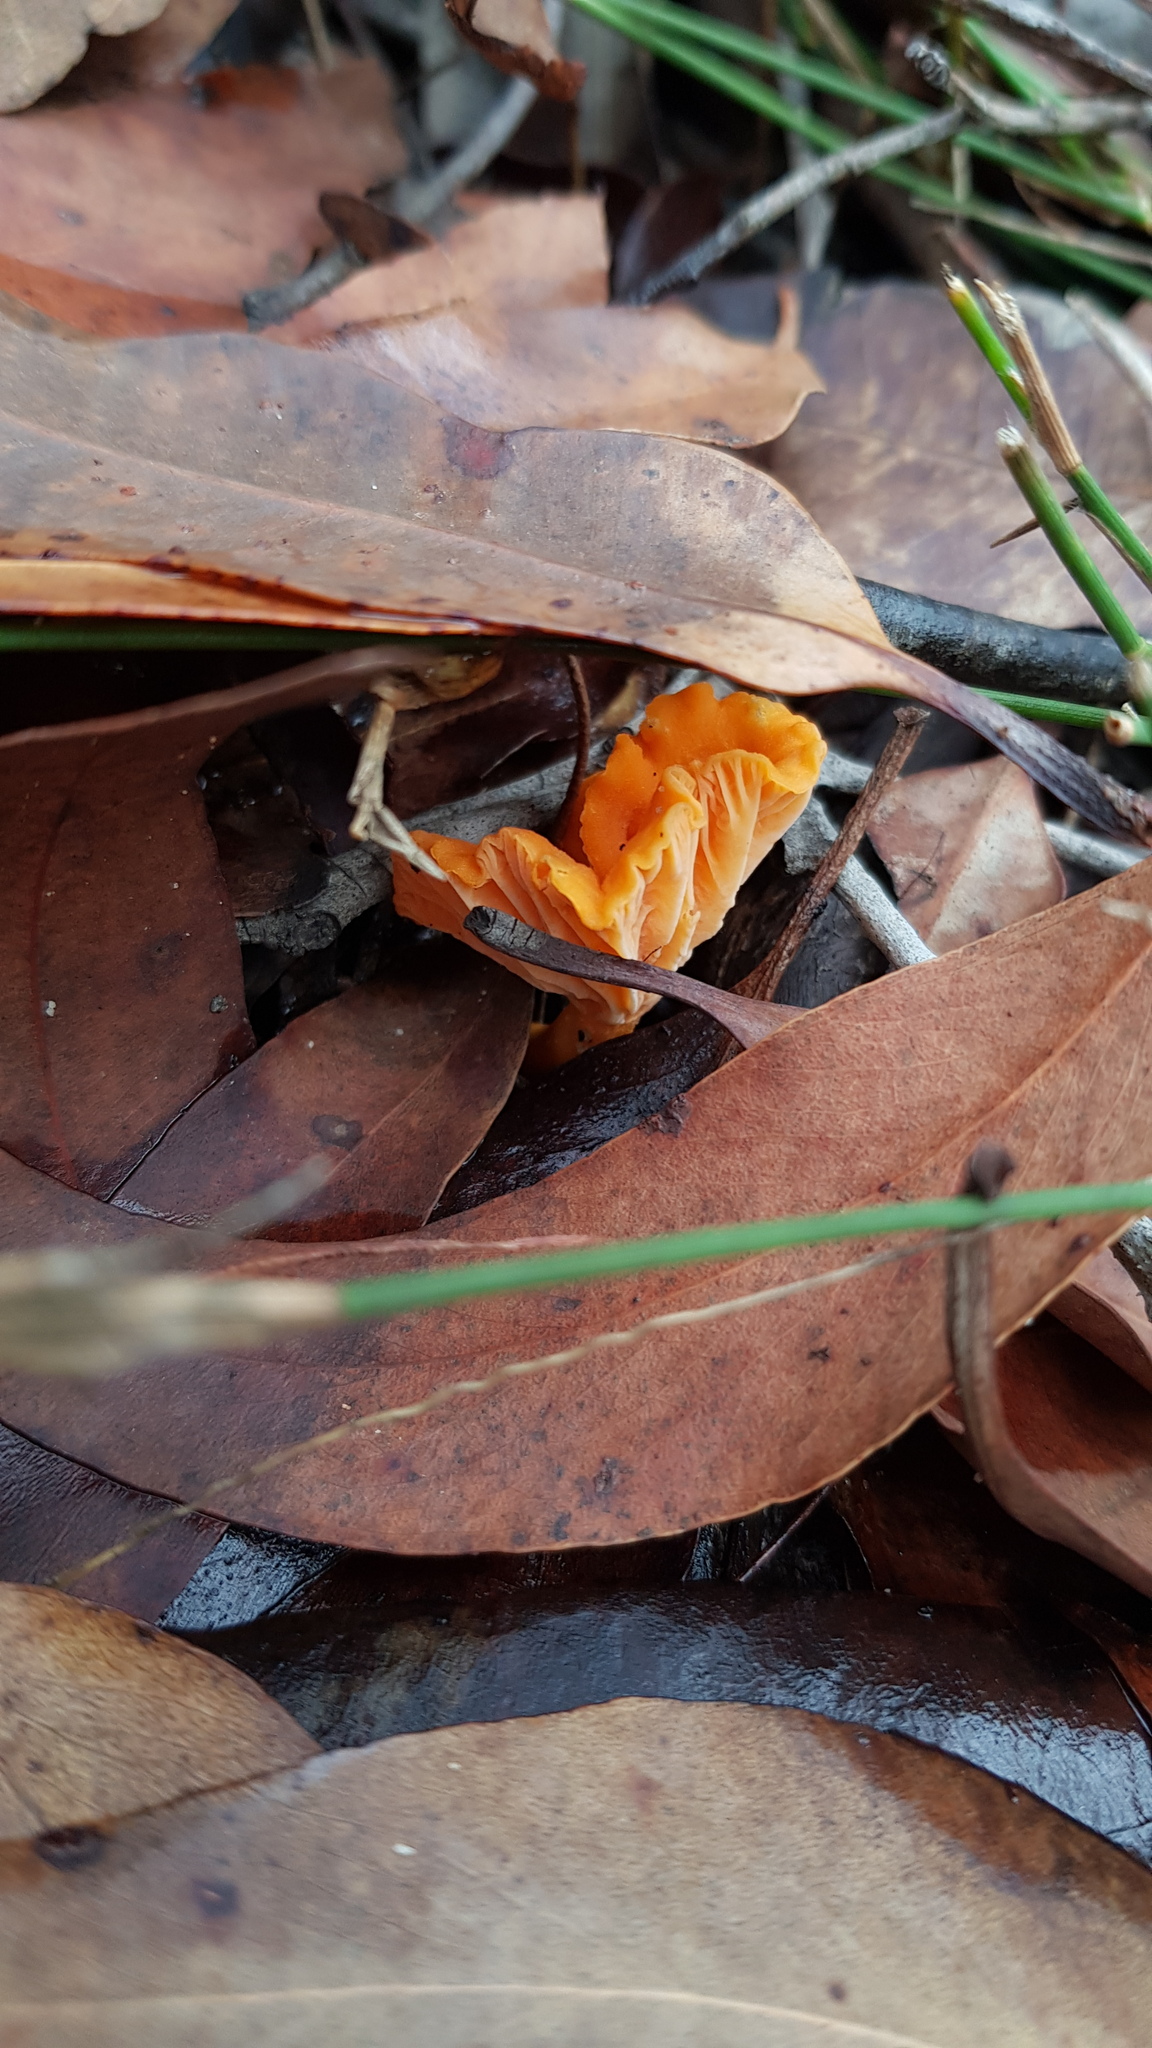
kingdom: Fungi
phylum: Basidiomycota
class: Agaricomycetes
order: Cantharellales
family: Hydnaceae
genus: Cantharellus
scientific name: Cantharellus
